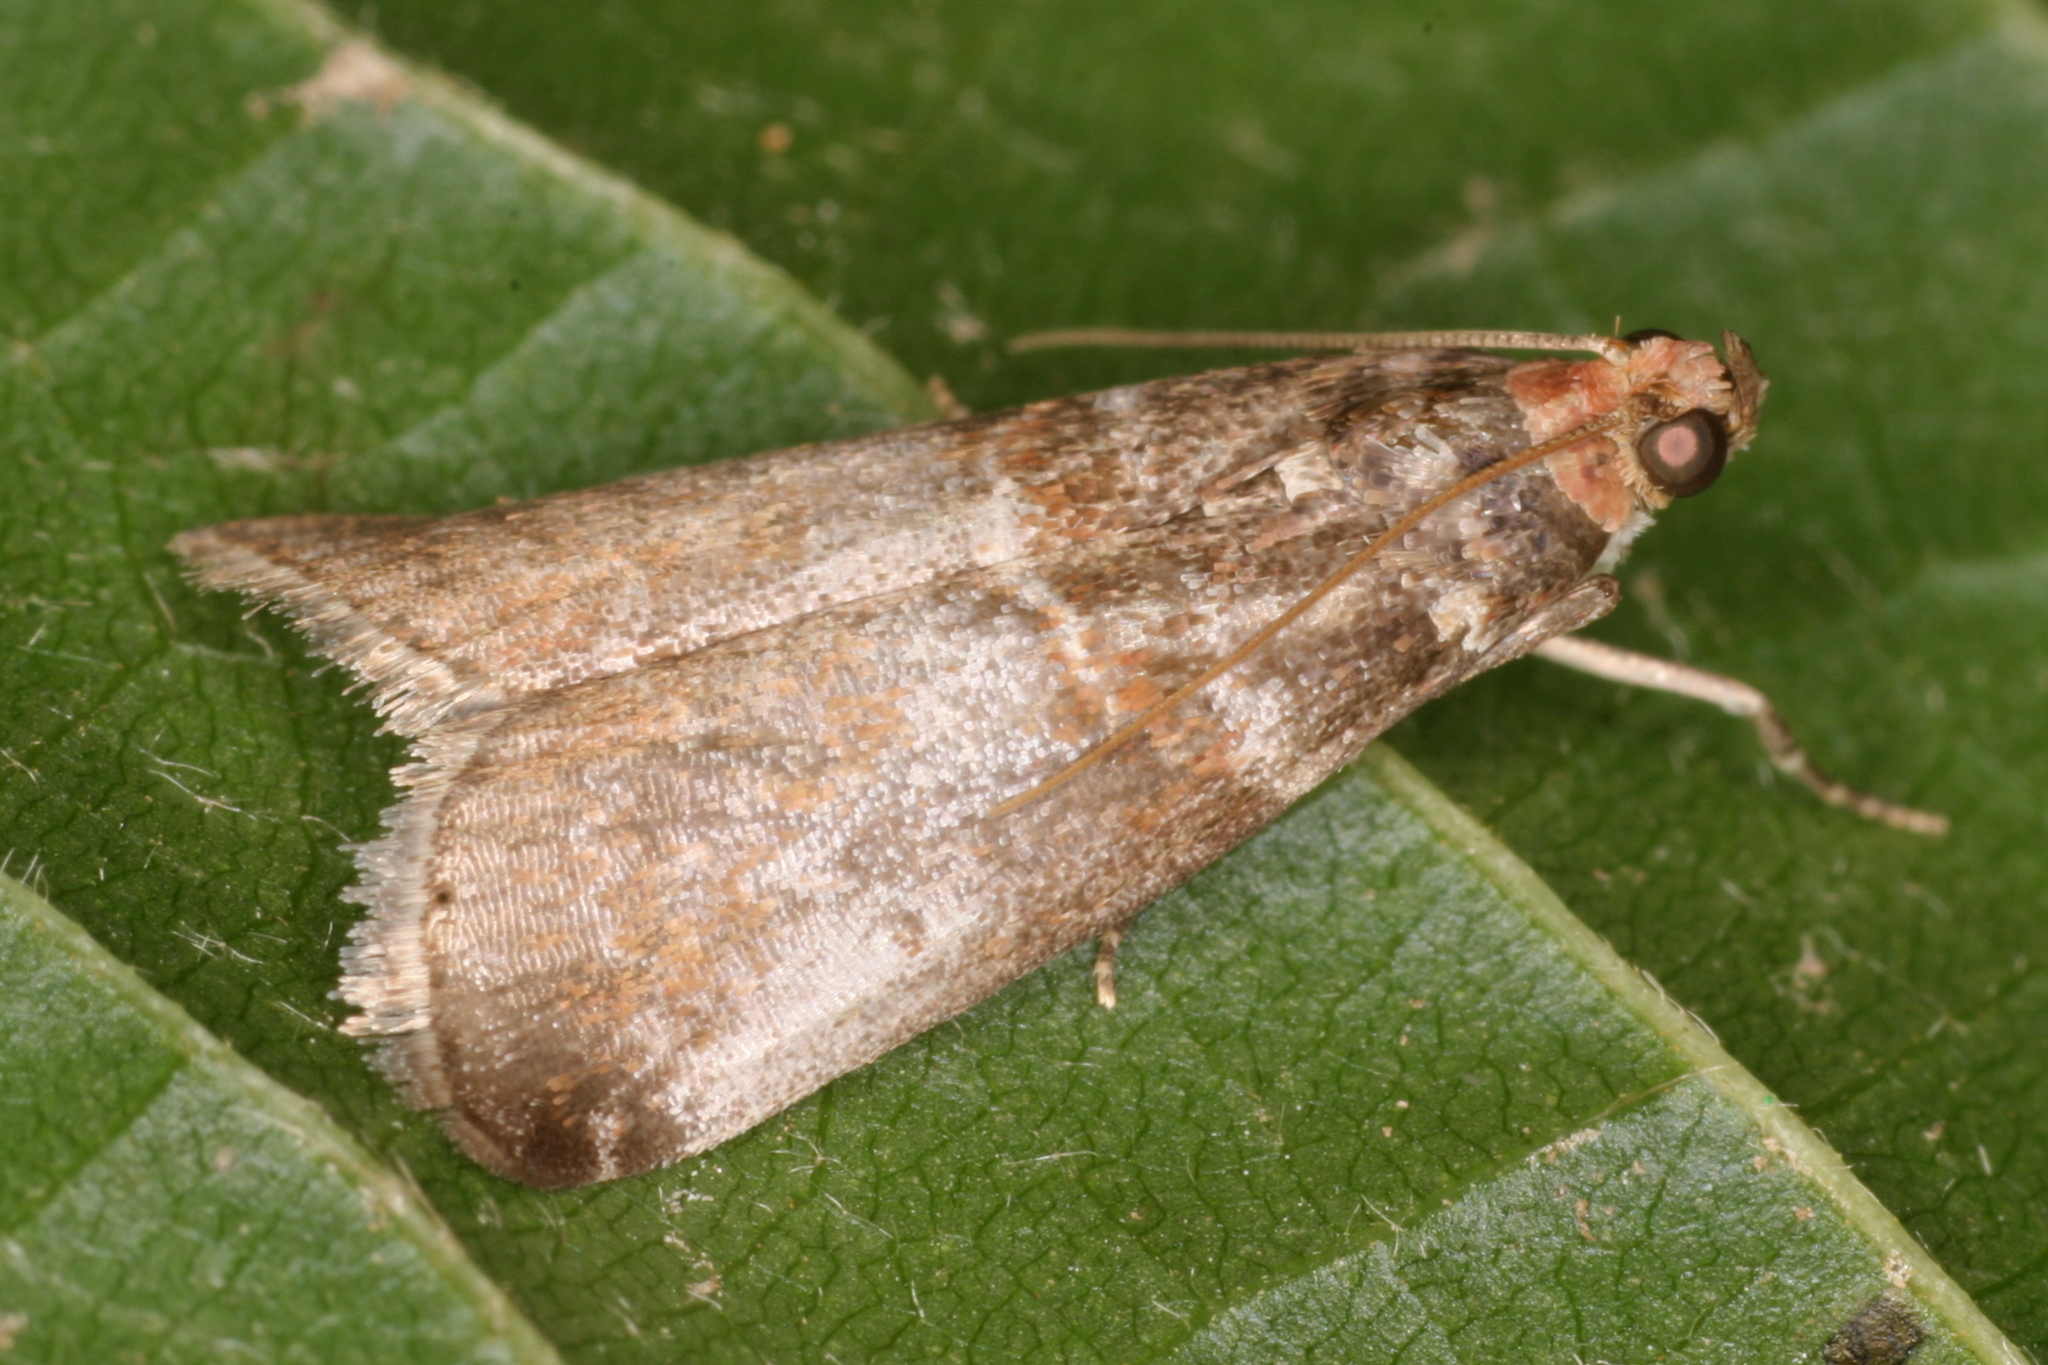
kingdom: Animalia
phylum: Arthropoda
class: Insecta
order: Lepidoptera
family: Pyralidae
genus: Acrobasis
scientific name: Acrobasis advenella
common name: Grey knot-horn
